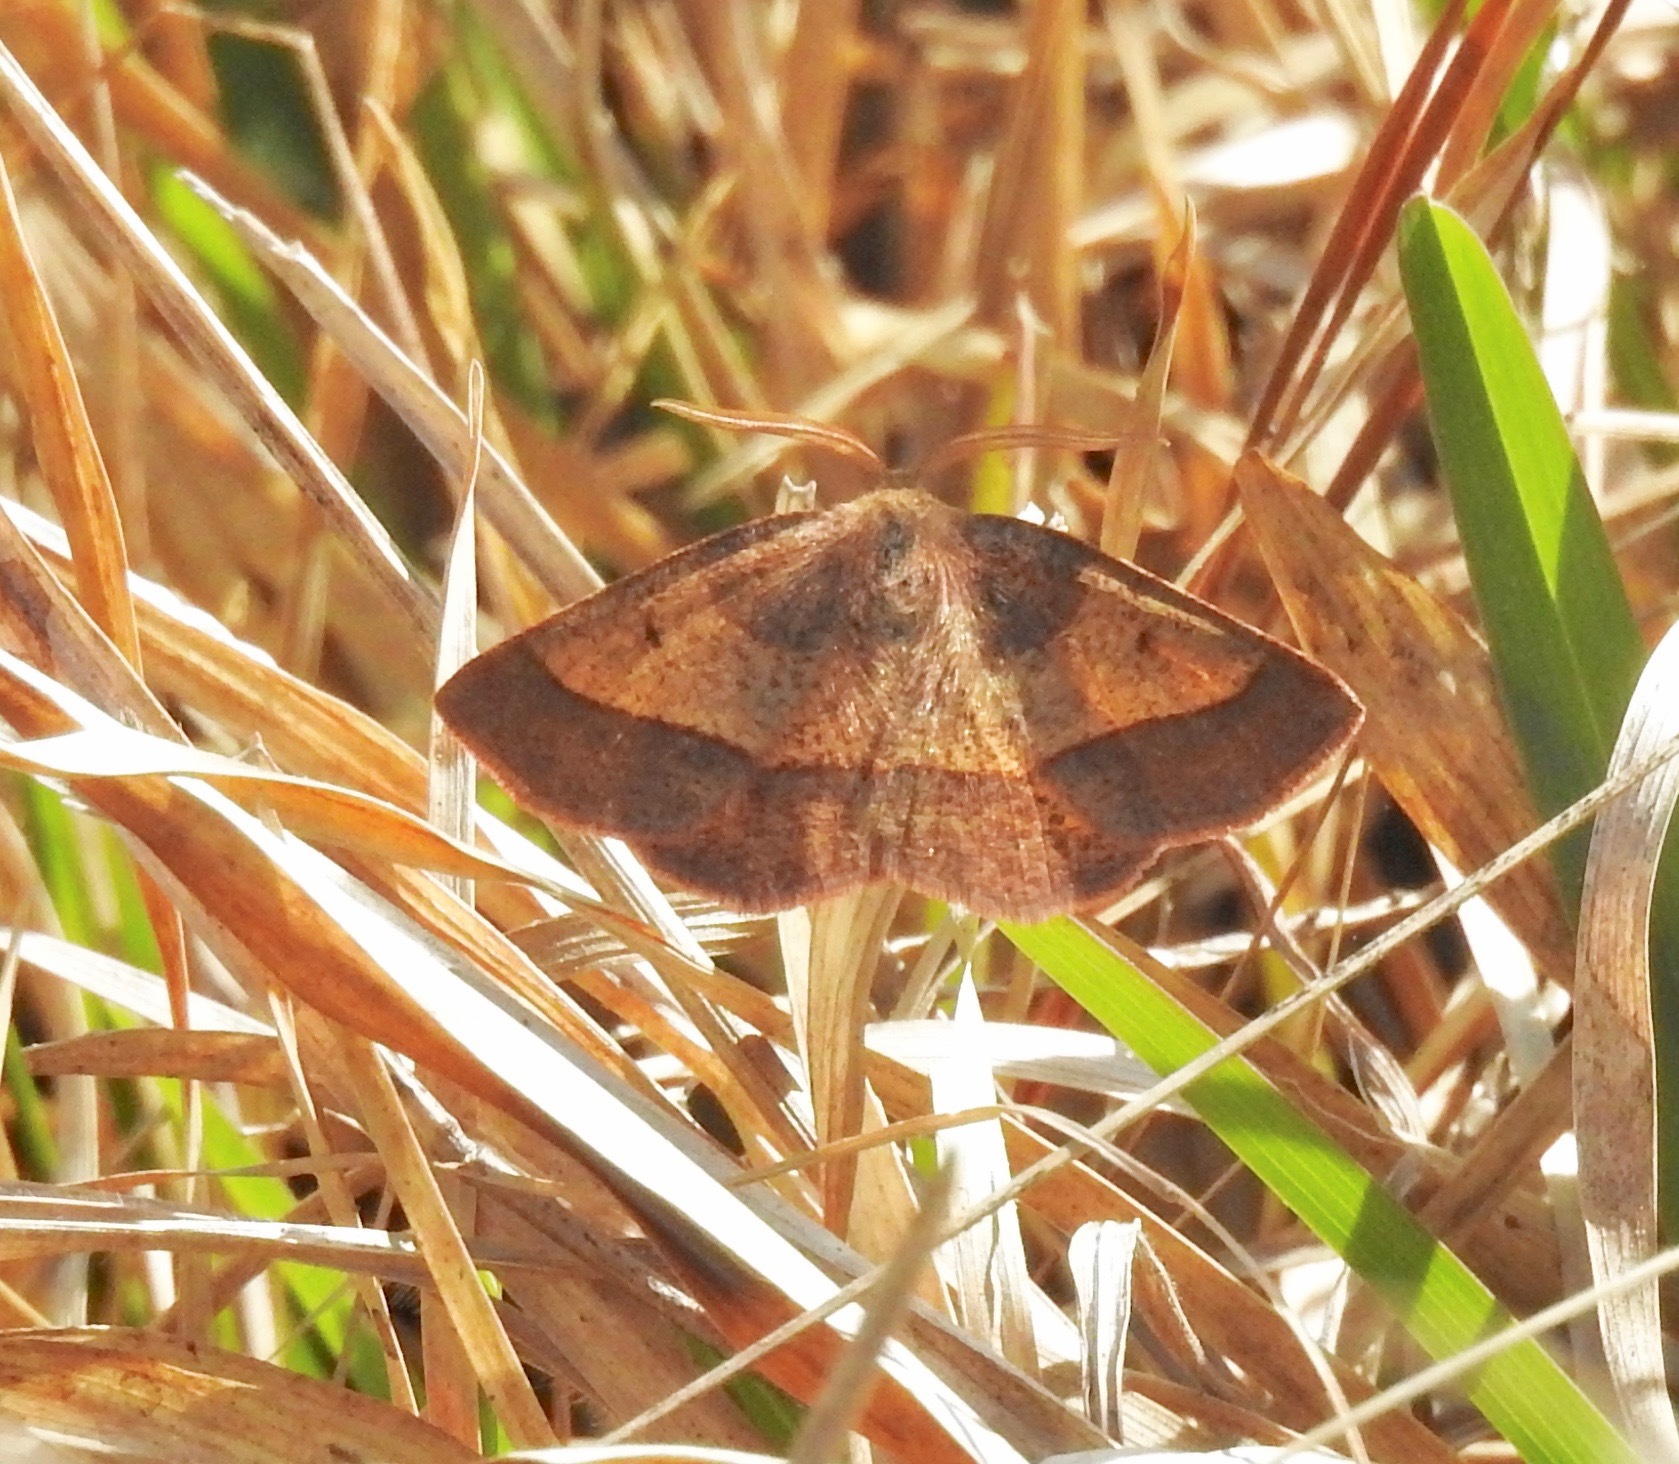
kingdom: Animalia
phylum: Arthropoda
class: Insecta
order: Lepidoptera
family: Geometridae
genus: Metarranthis
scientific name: Metarranthis obfirmaria
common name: Yellow-washed metarranthis
